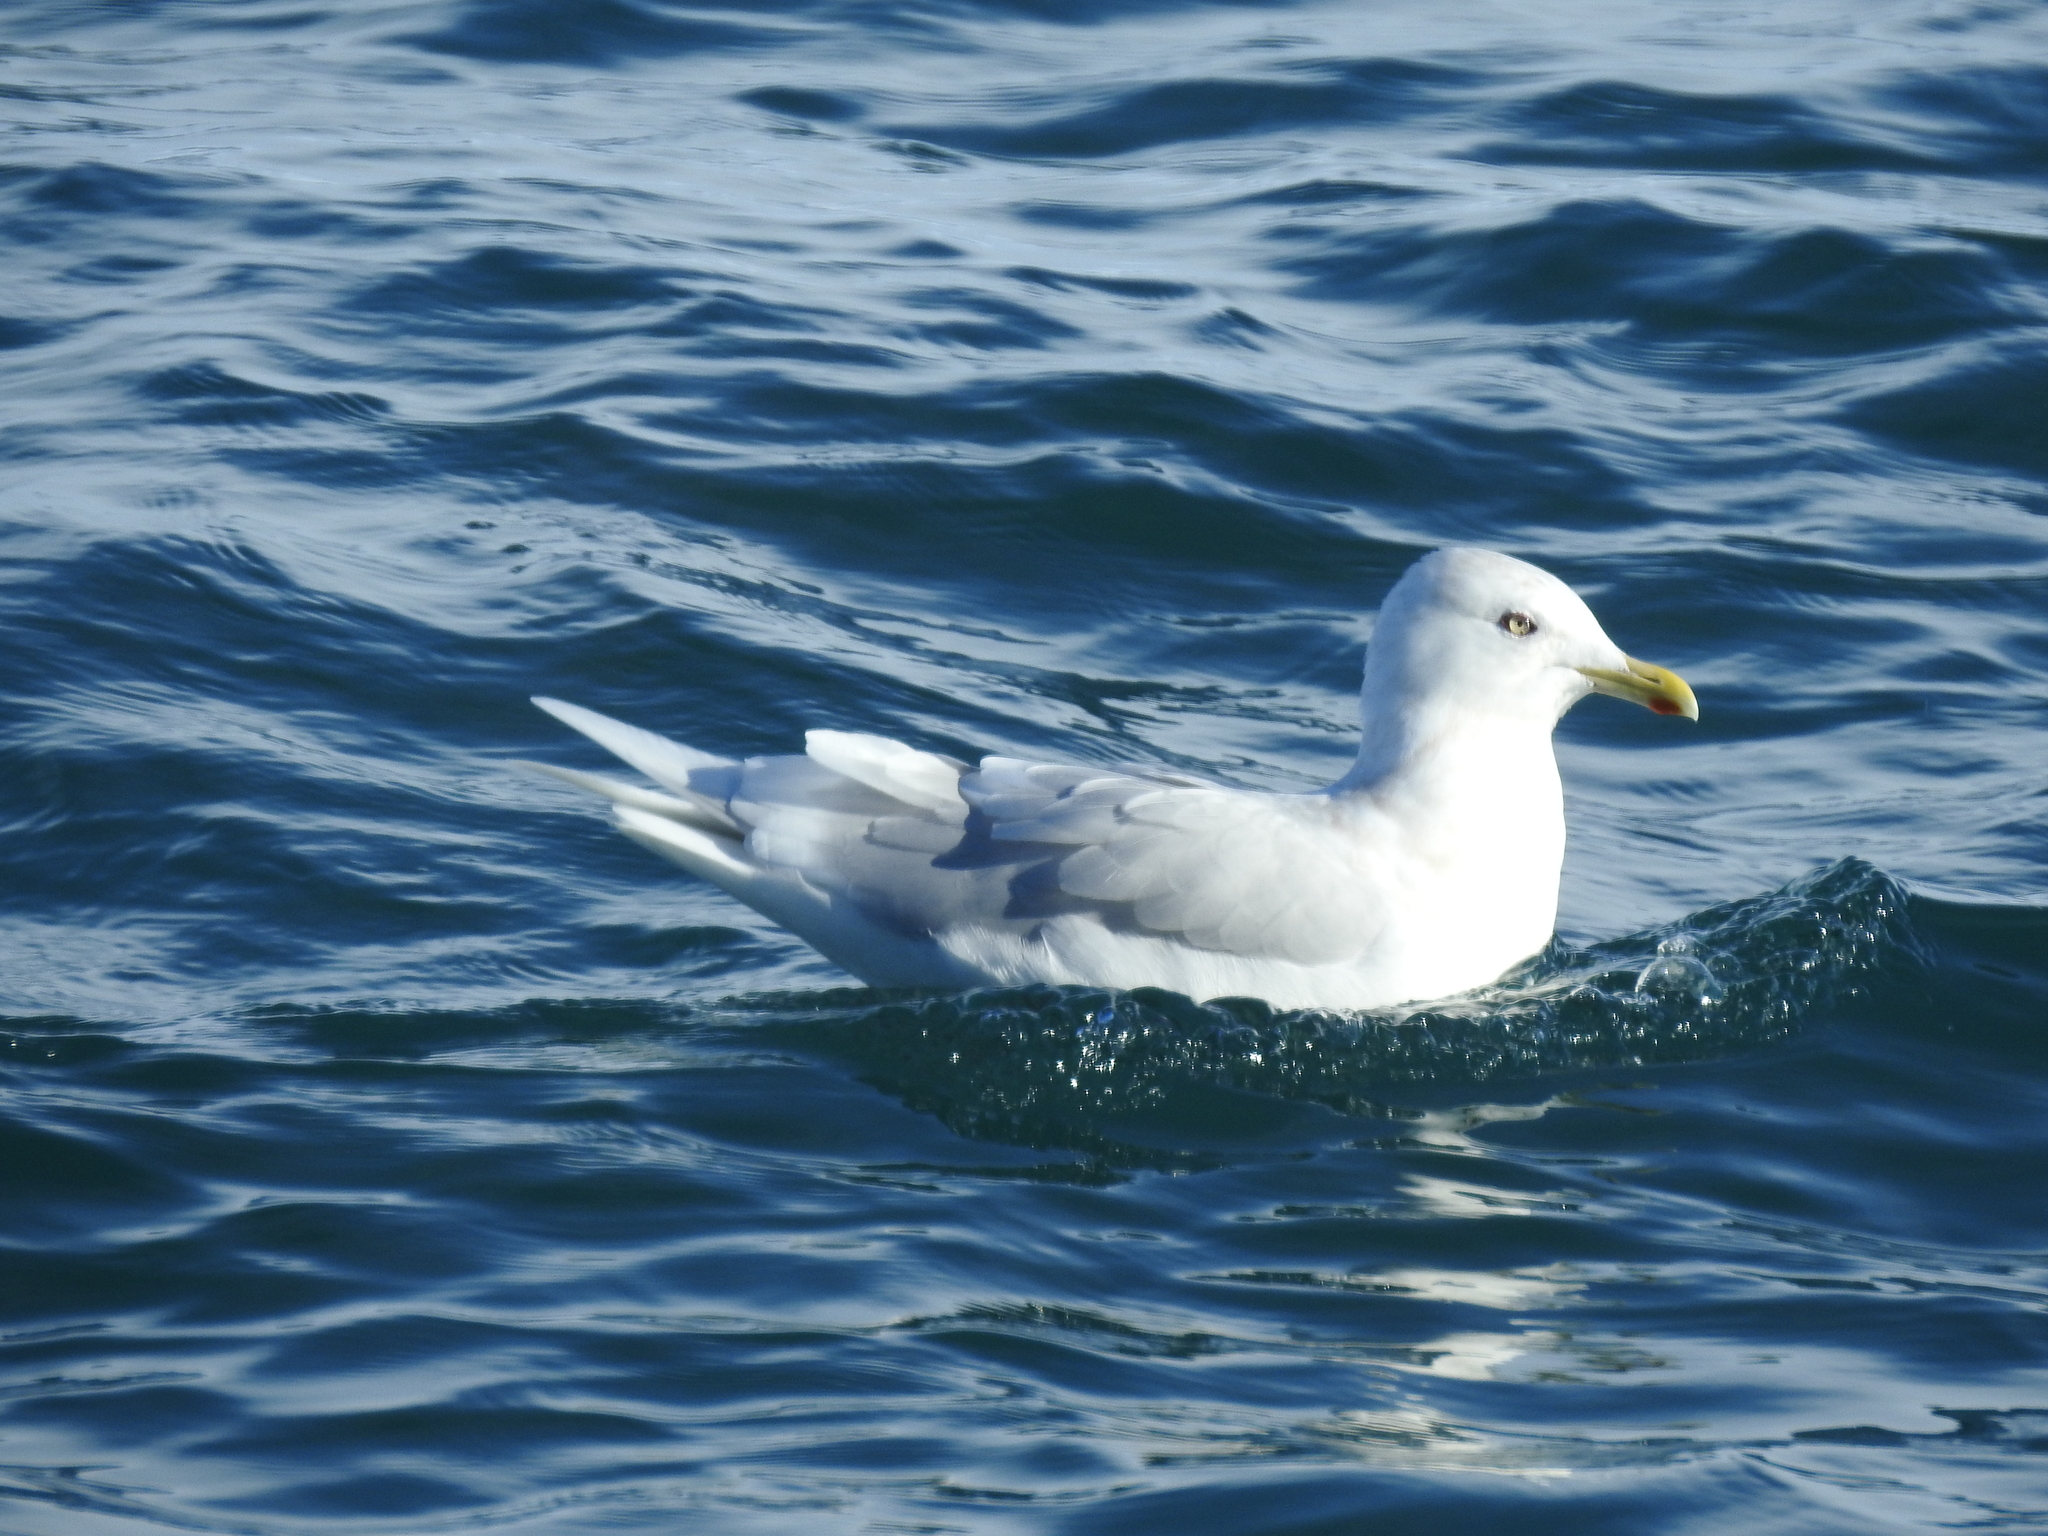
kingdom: Animalia
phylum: Chordata
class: Aves
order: Charadriiformes
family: Laridae
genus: Larus
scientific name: Larus hyperboreus
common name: Glaucous gull
